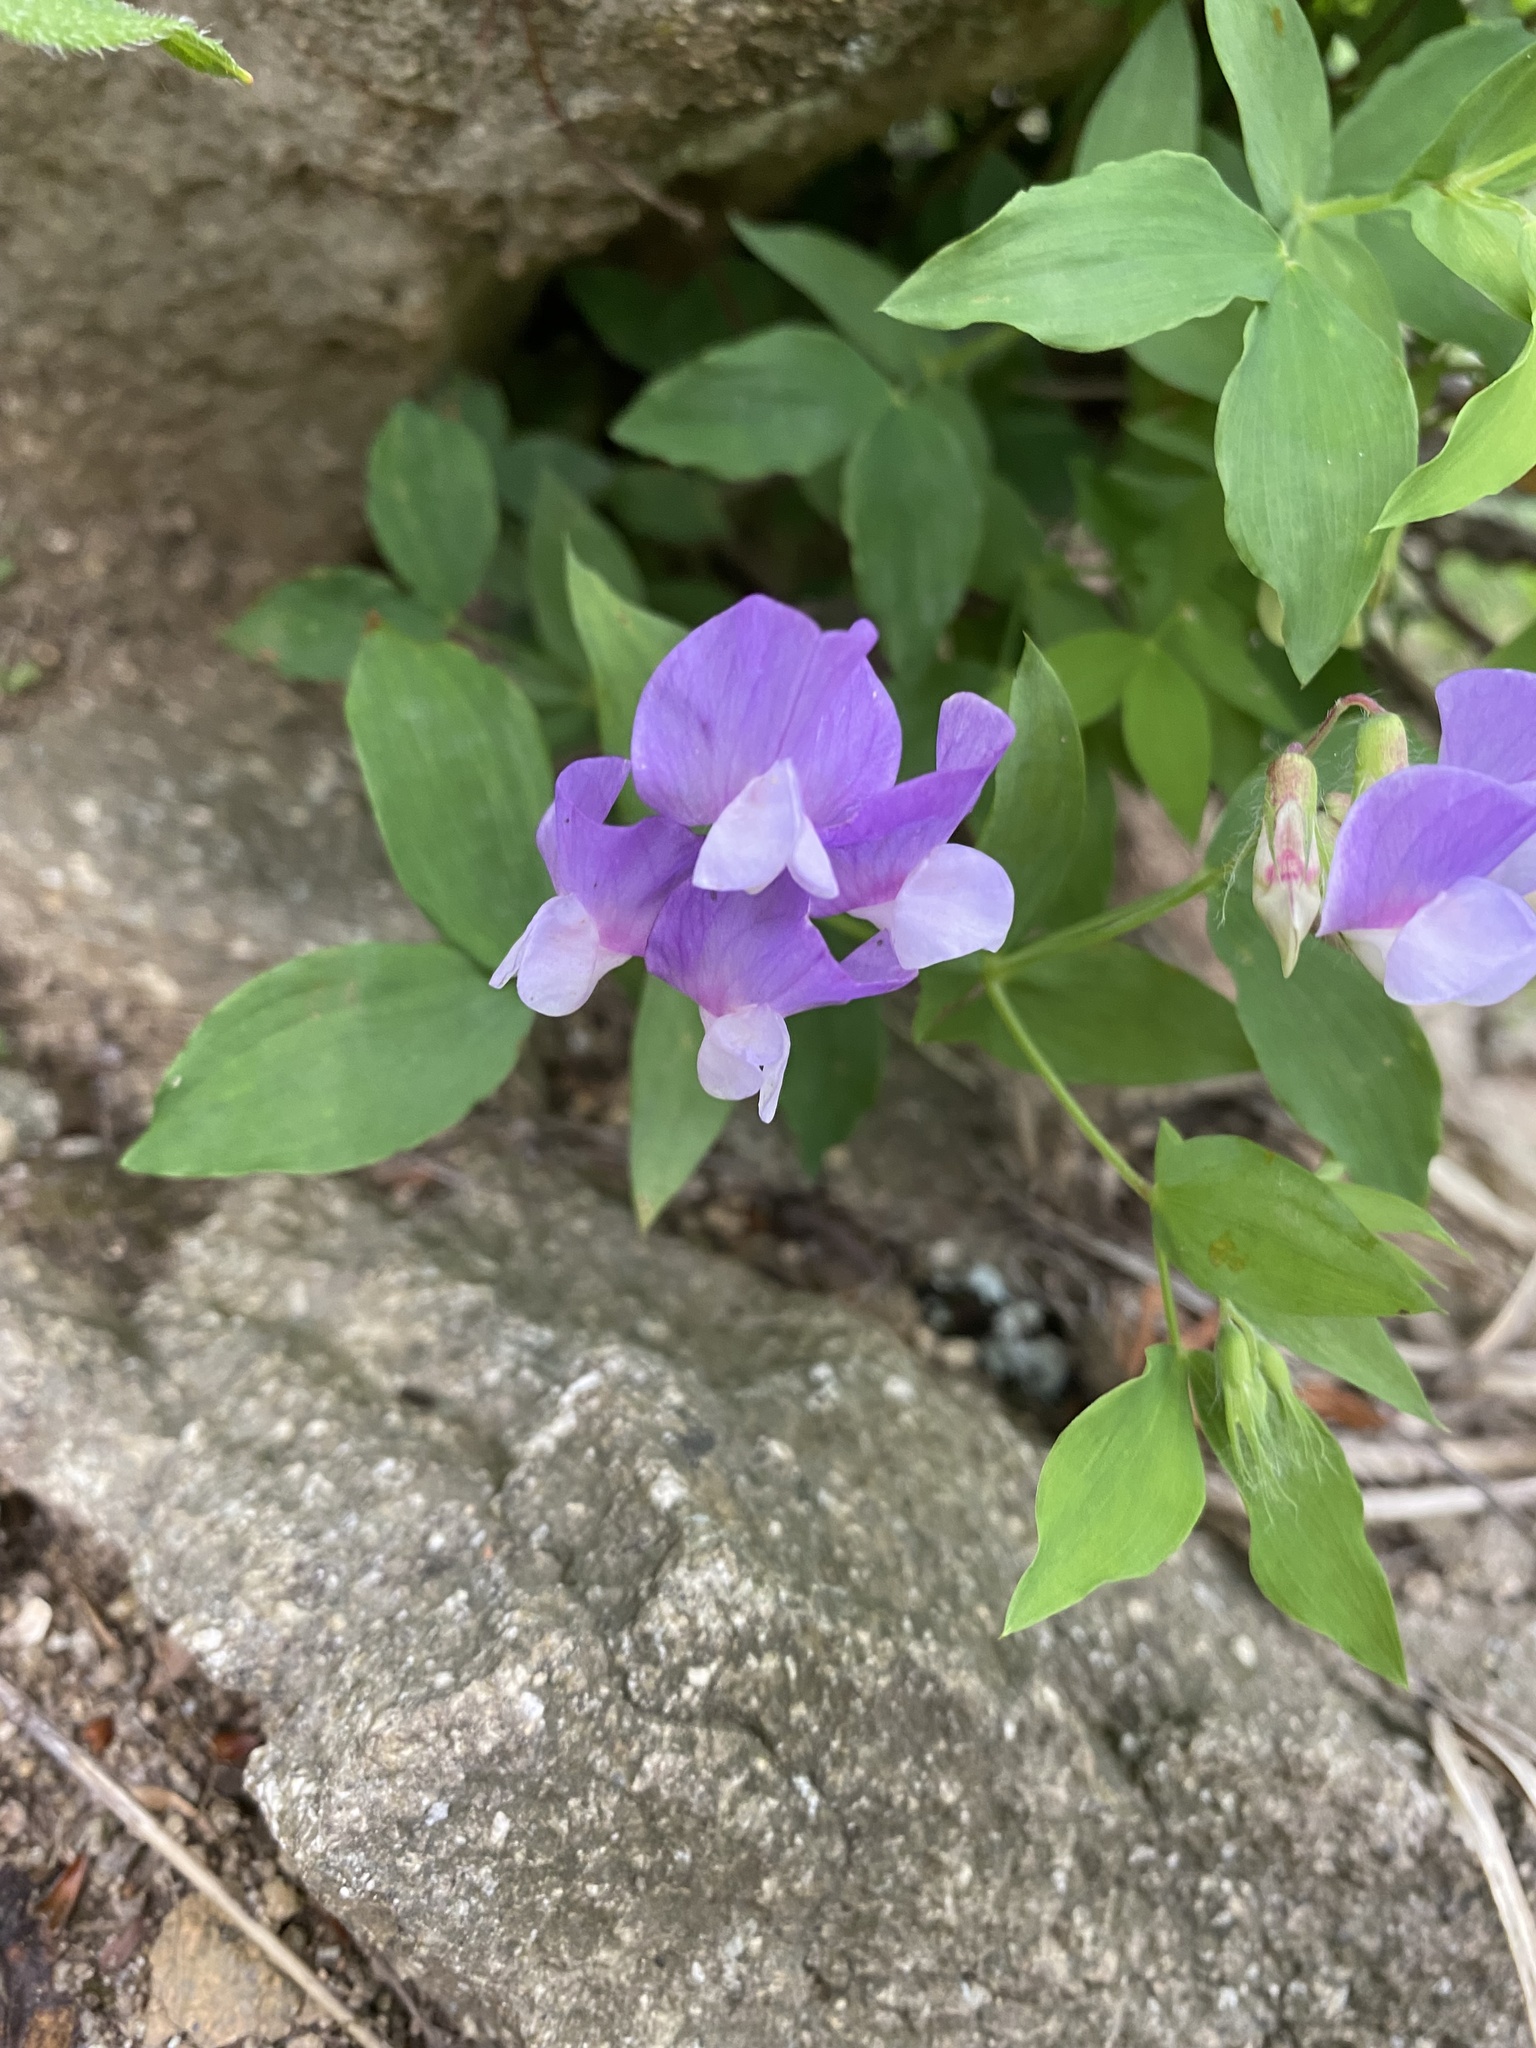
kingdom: Plantae
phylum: Tracheophyta
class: Magnoliopsida
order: Fabales
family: Fabaceae
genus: Lathyrus
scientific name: Lathyrus laxiflorus
